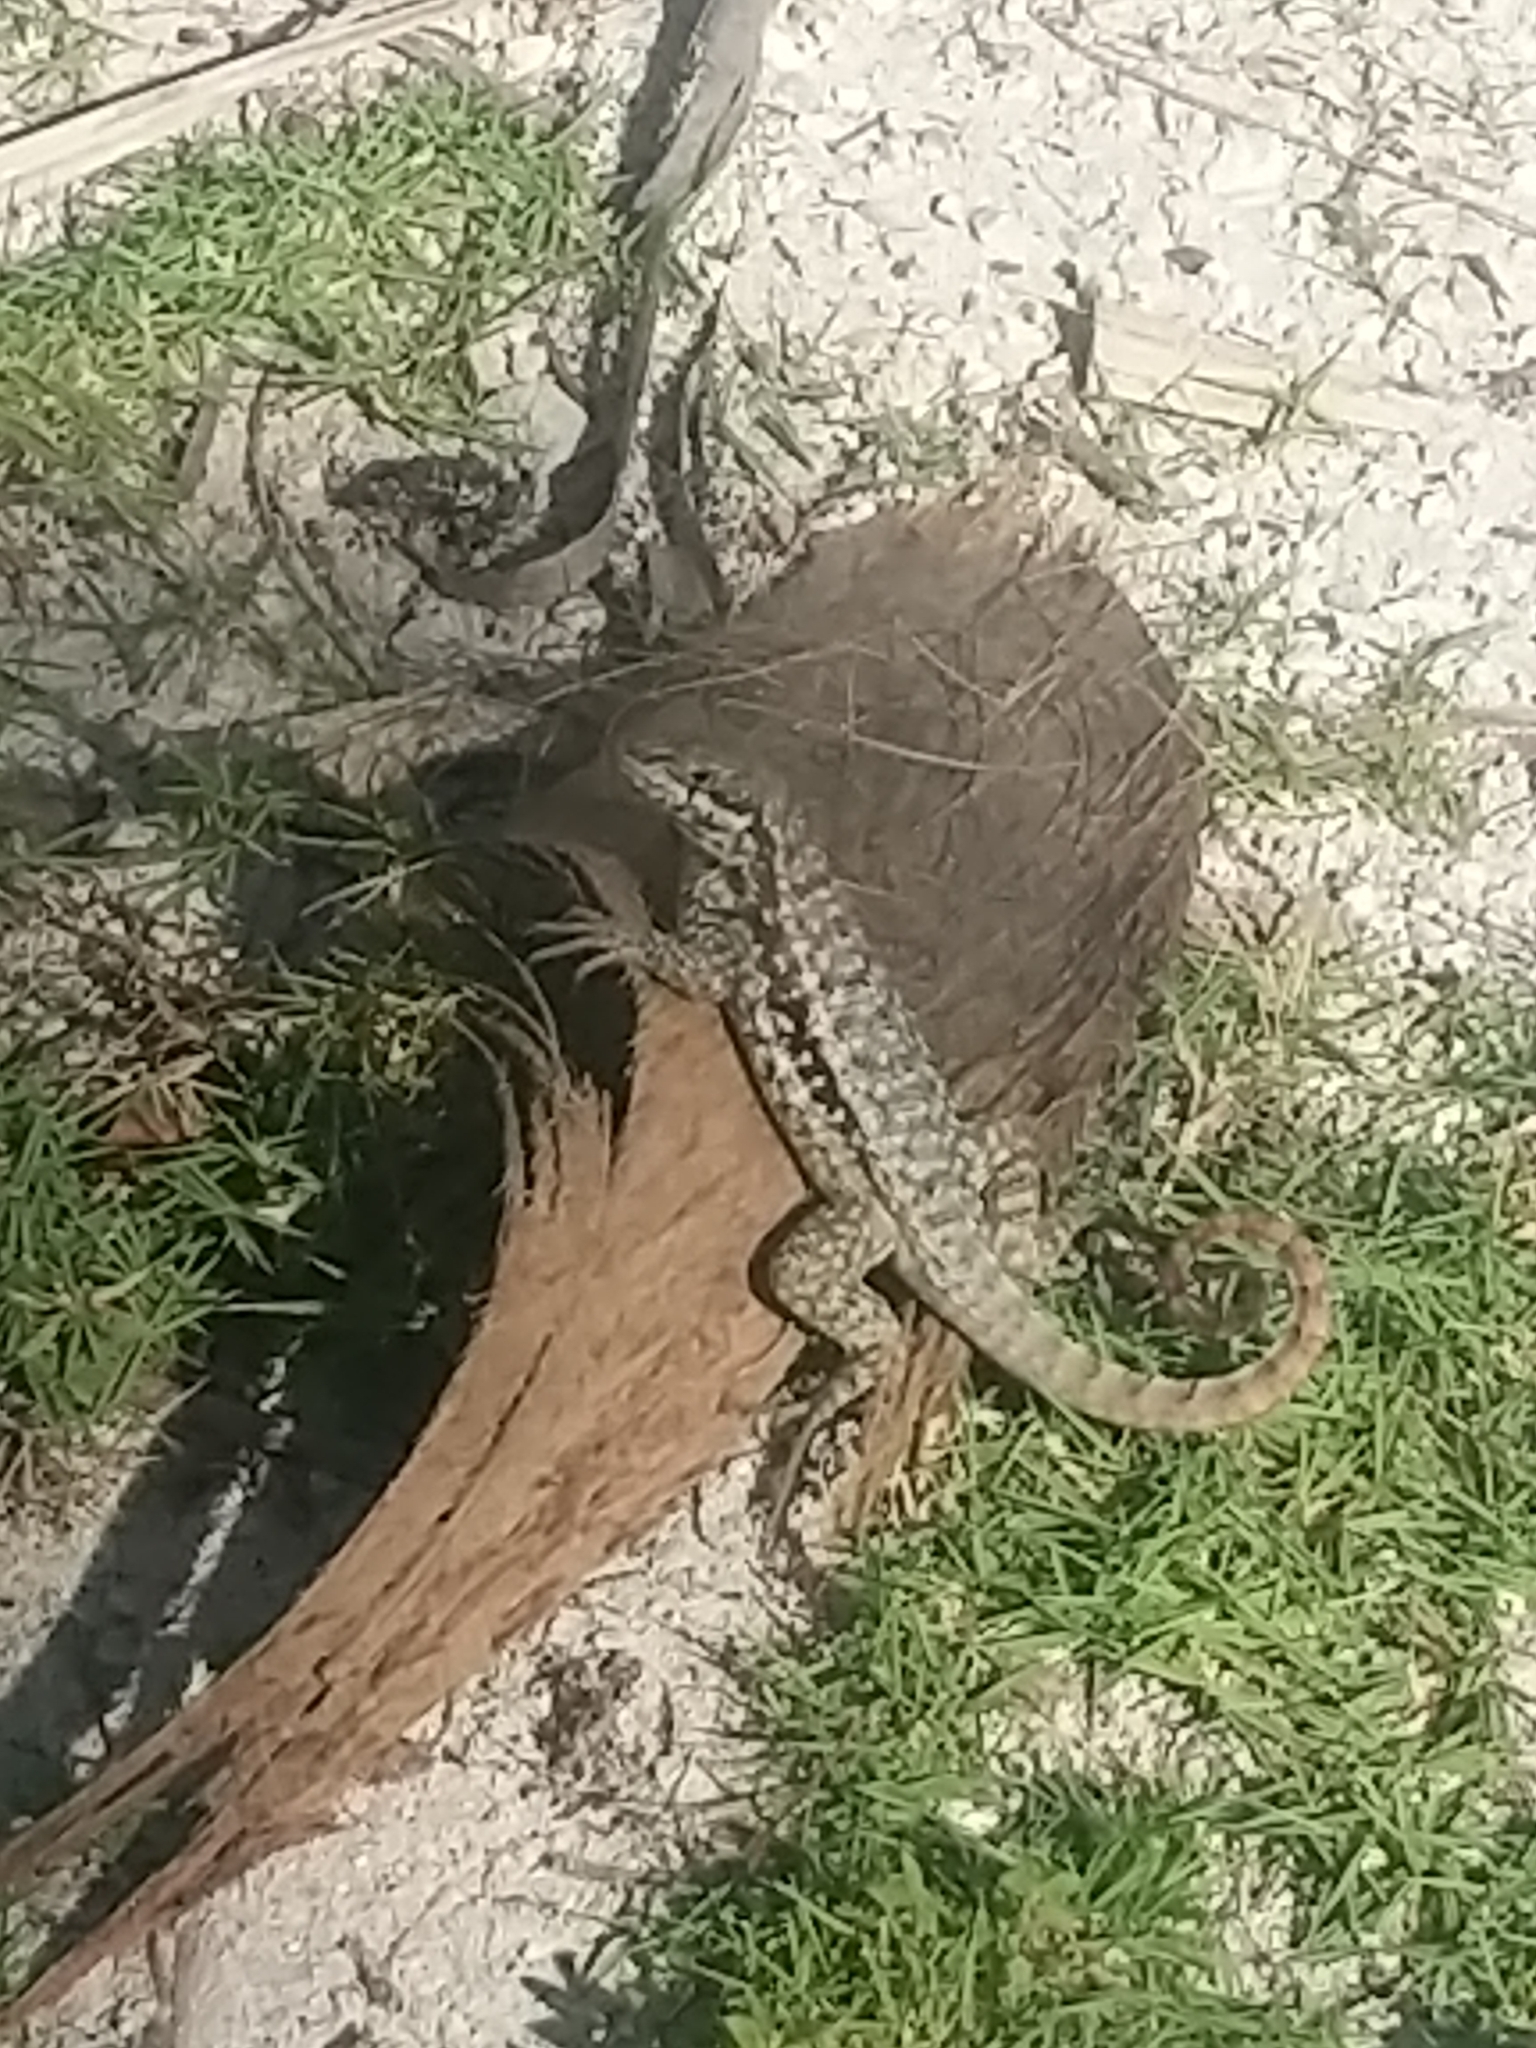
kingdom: Animalia
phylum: Chordata
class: Squamata
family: Leiocephalidae
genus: Leiocephalus
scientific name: Leiocephalus carinatus
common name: Northern curly-tailed lizard
